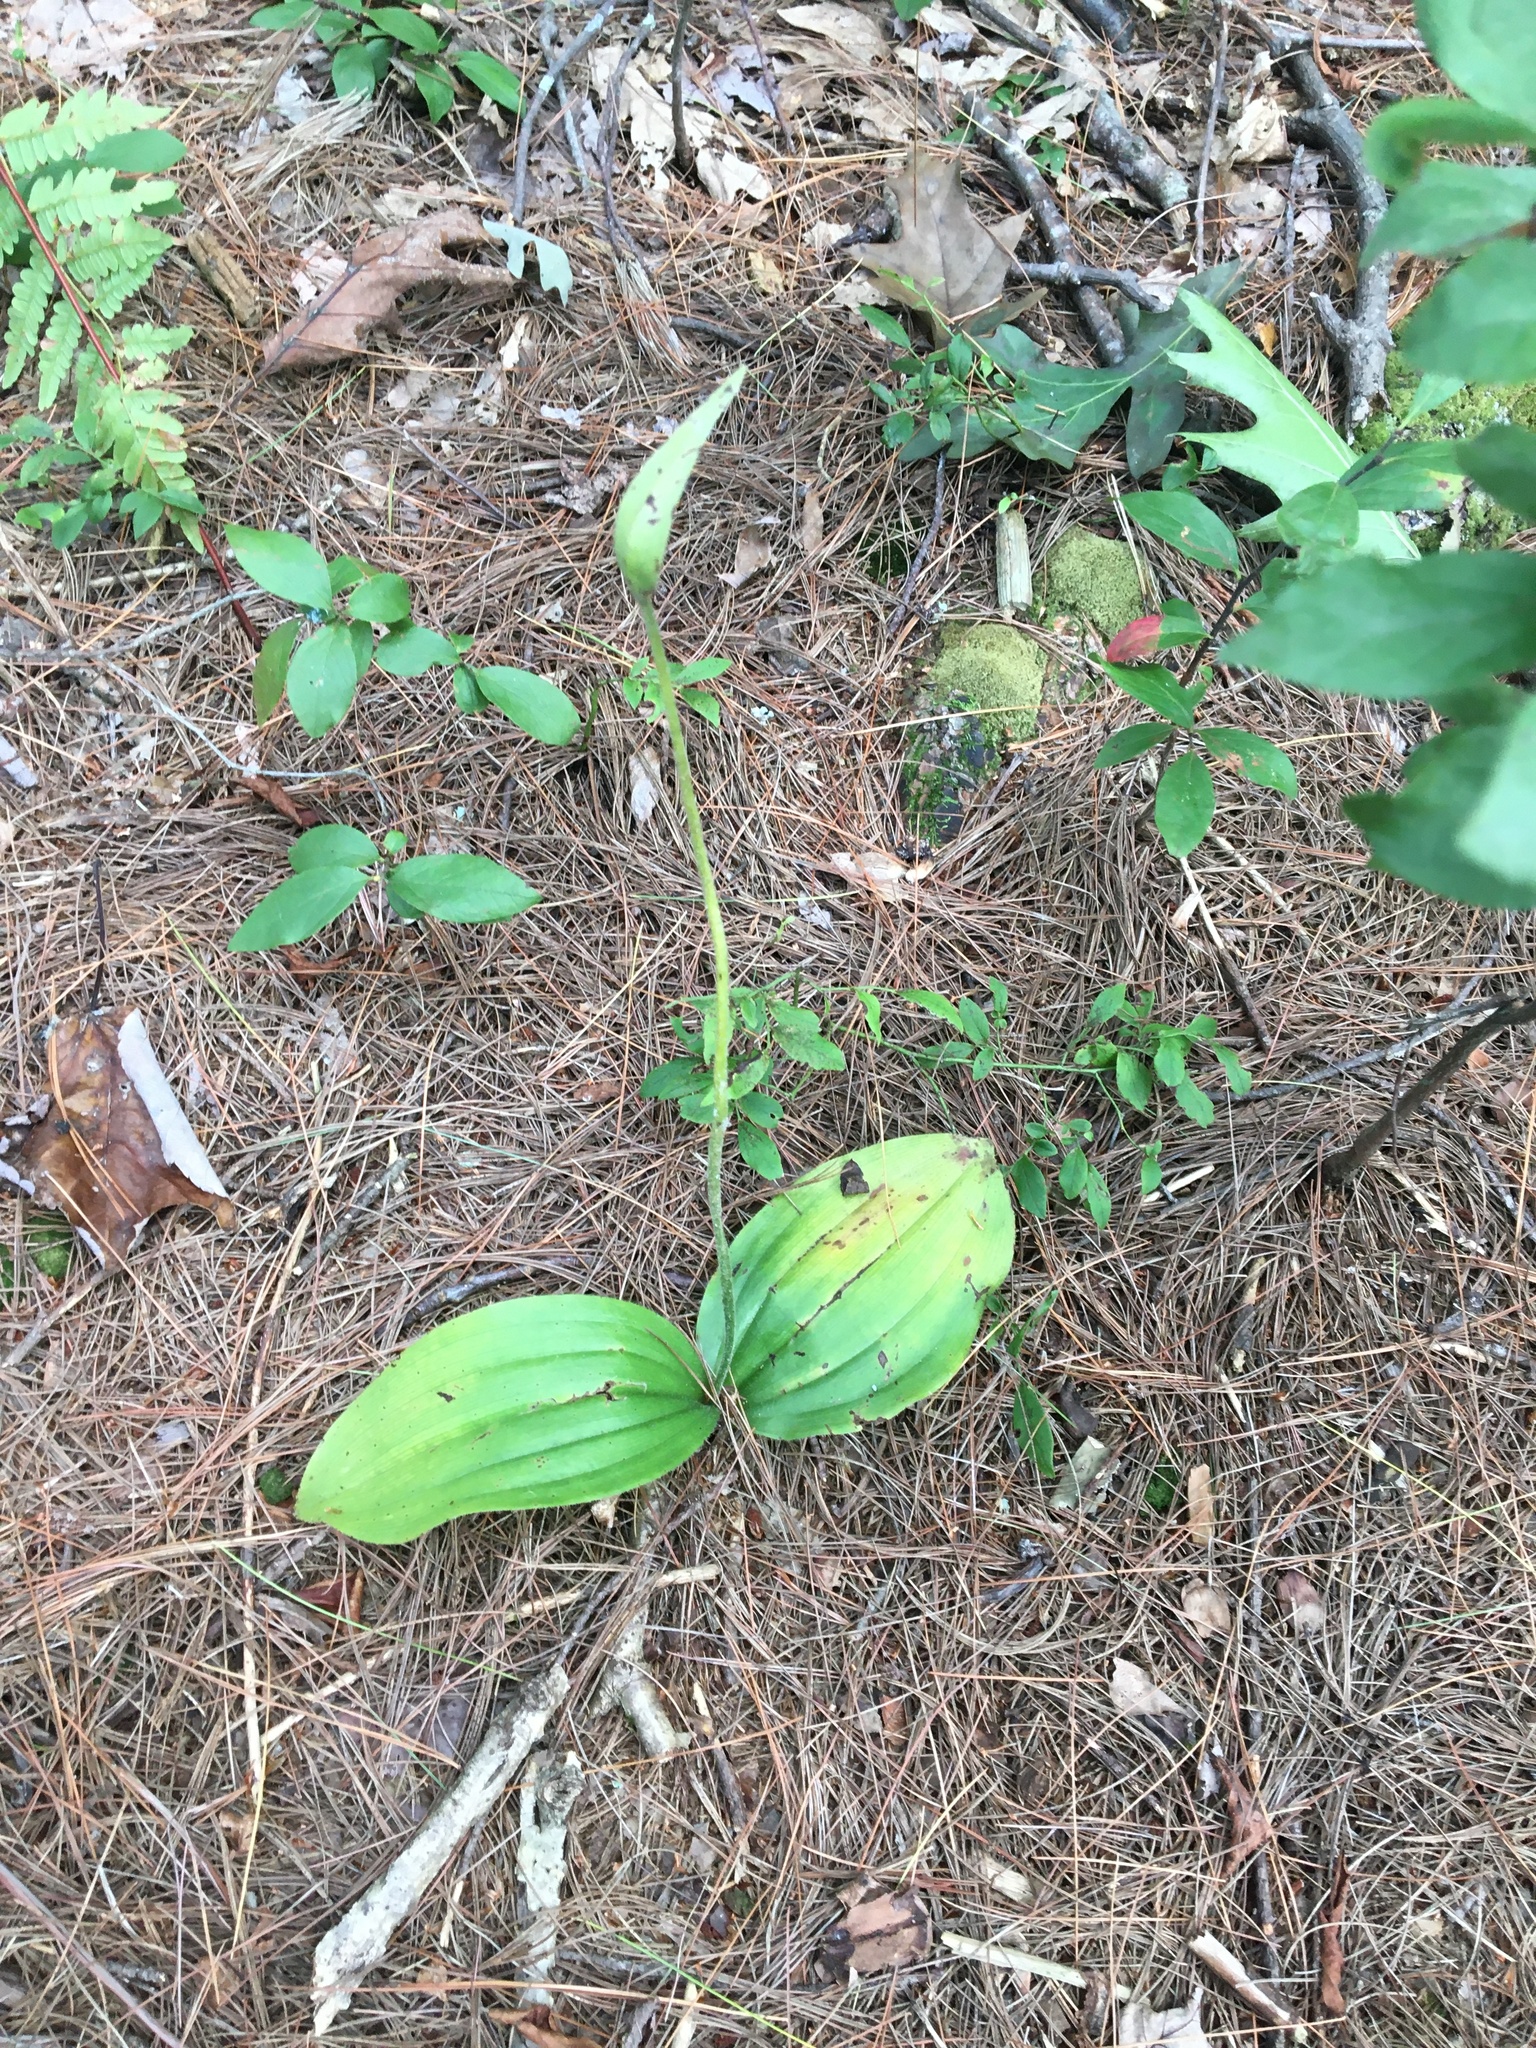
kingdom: Plantae
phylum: Tracheophyta
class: Liliopsida
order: Asparagales
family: Orchidaceae
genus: Cypripedium
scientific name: Cypripedium acaule
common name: Pink lady's-slipper
